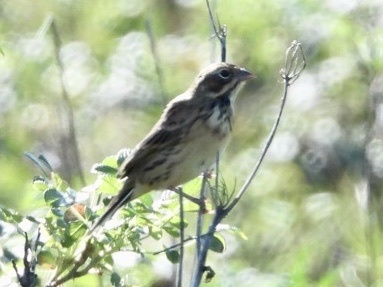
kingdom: Animalia
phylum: Chordata
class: Aves
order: Passeriformes
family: Emberizidae
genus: Emberiza
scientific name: Emberiza fucata
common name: Chestnut-eared bunting
